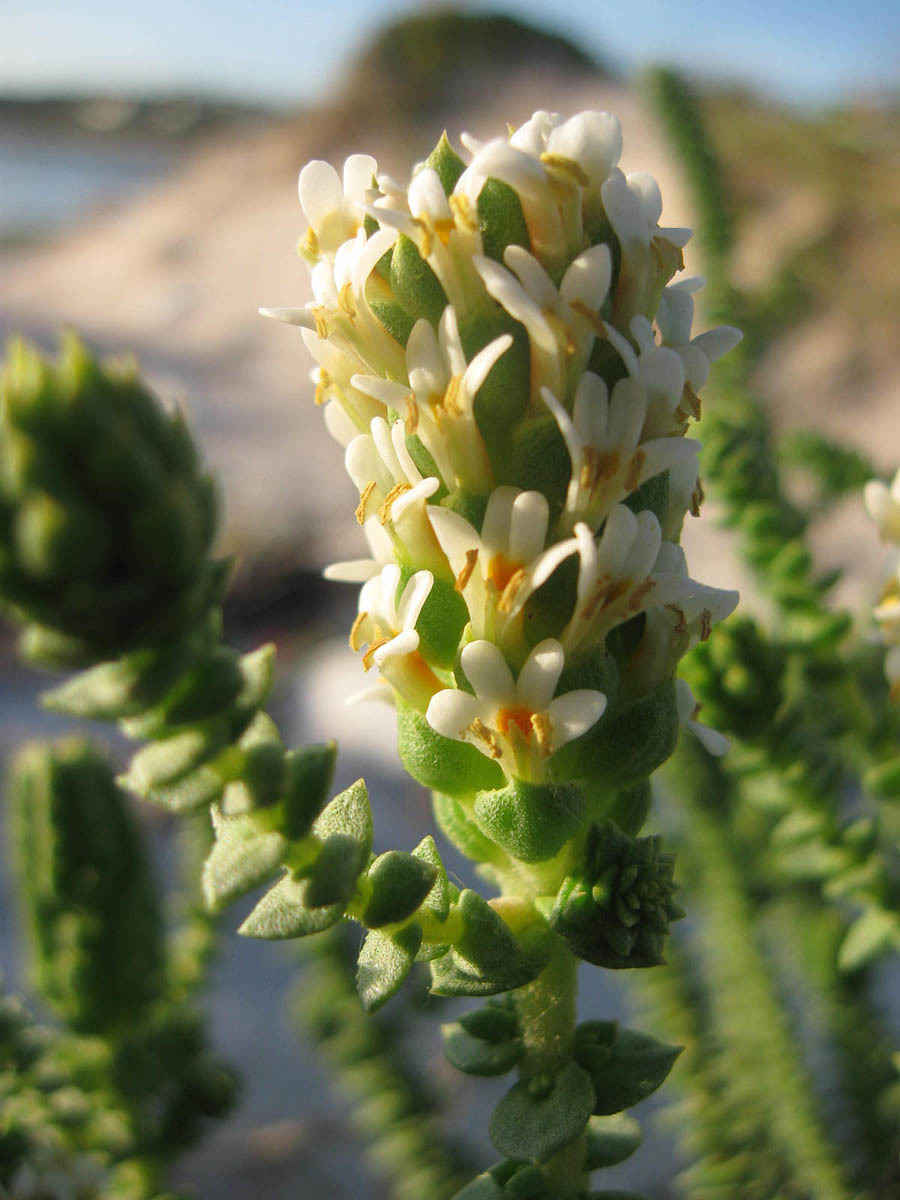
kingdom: Plantae
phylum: Tracheophyta
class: Magnoliopsida
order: Lamiales
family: Scrophulariaceae
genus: Hebenstretia
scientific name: Hebenstretia cordata
